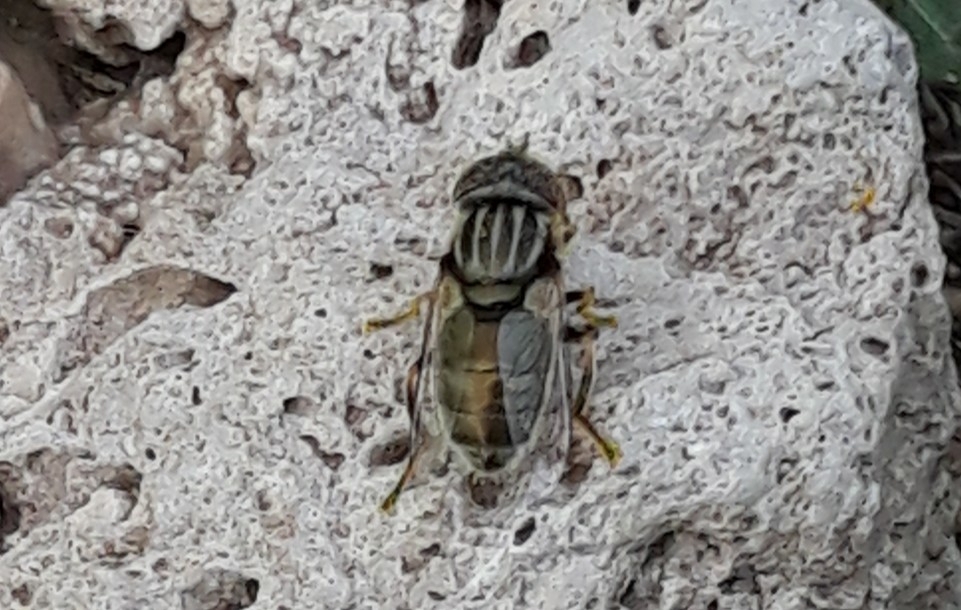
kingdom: Animalia
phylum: Arthropoda
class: Insecta
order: Diptera
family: Syrphidae
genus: Eristalinus
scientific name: Eristalinus aeneus
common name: Syrphid fly
